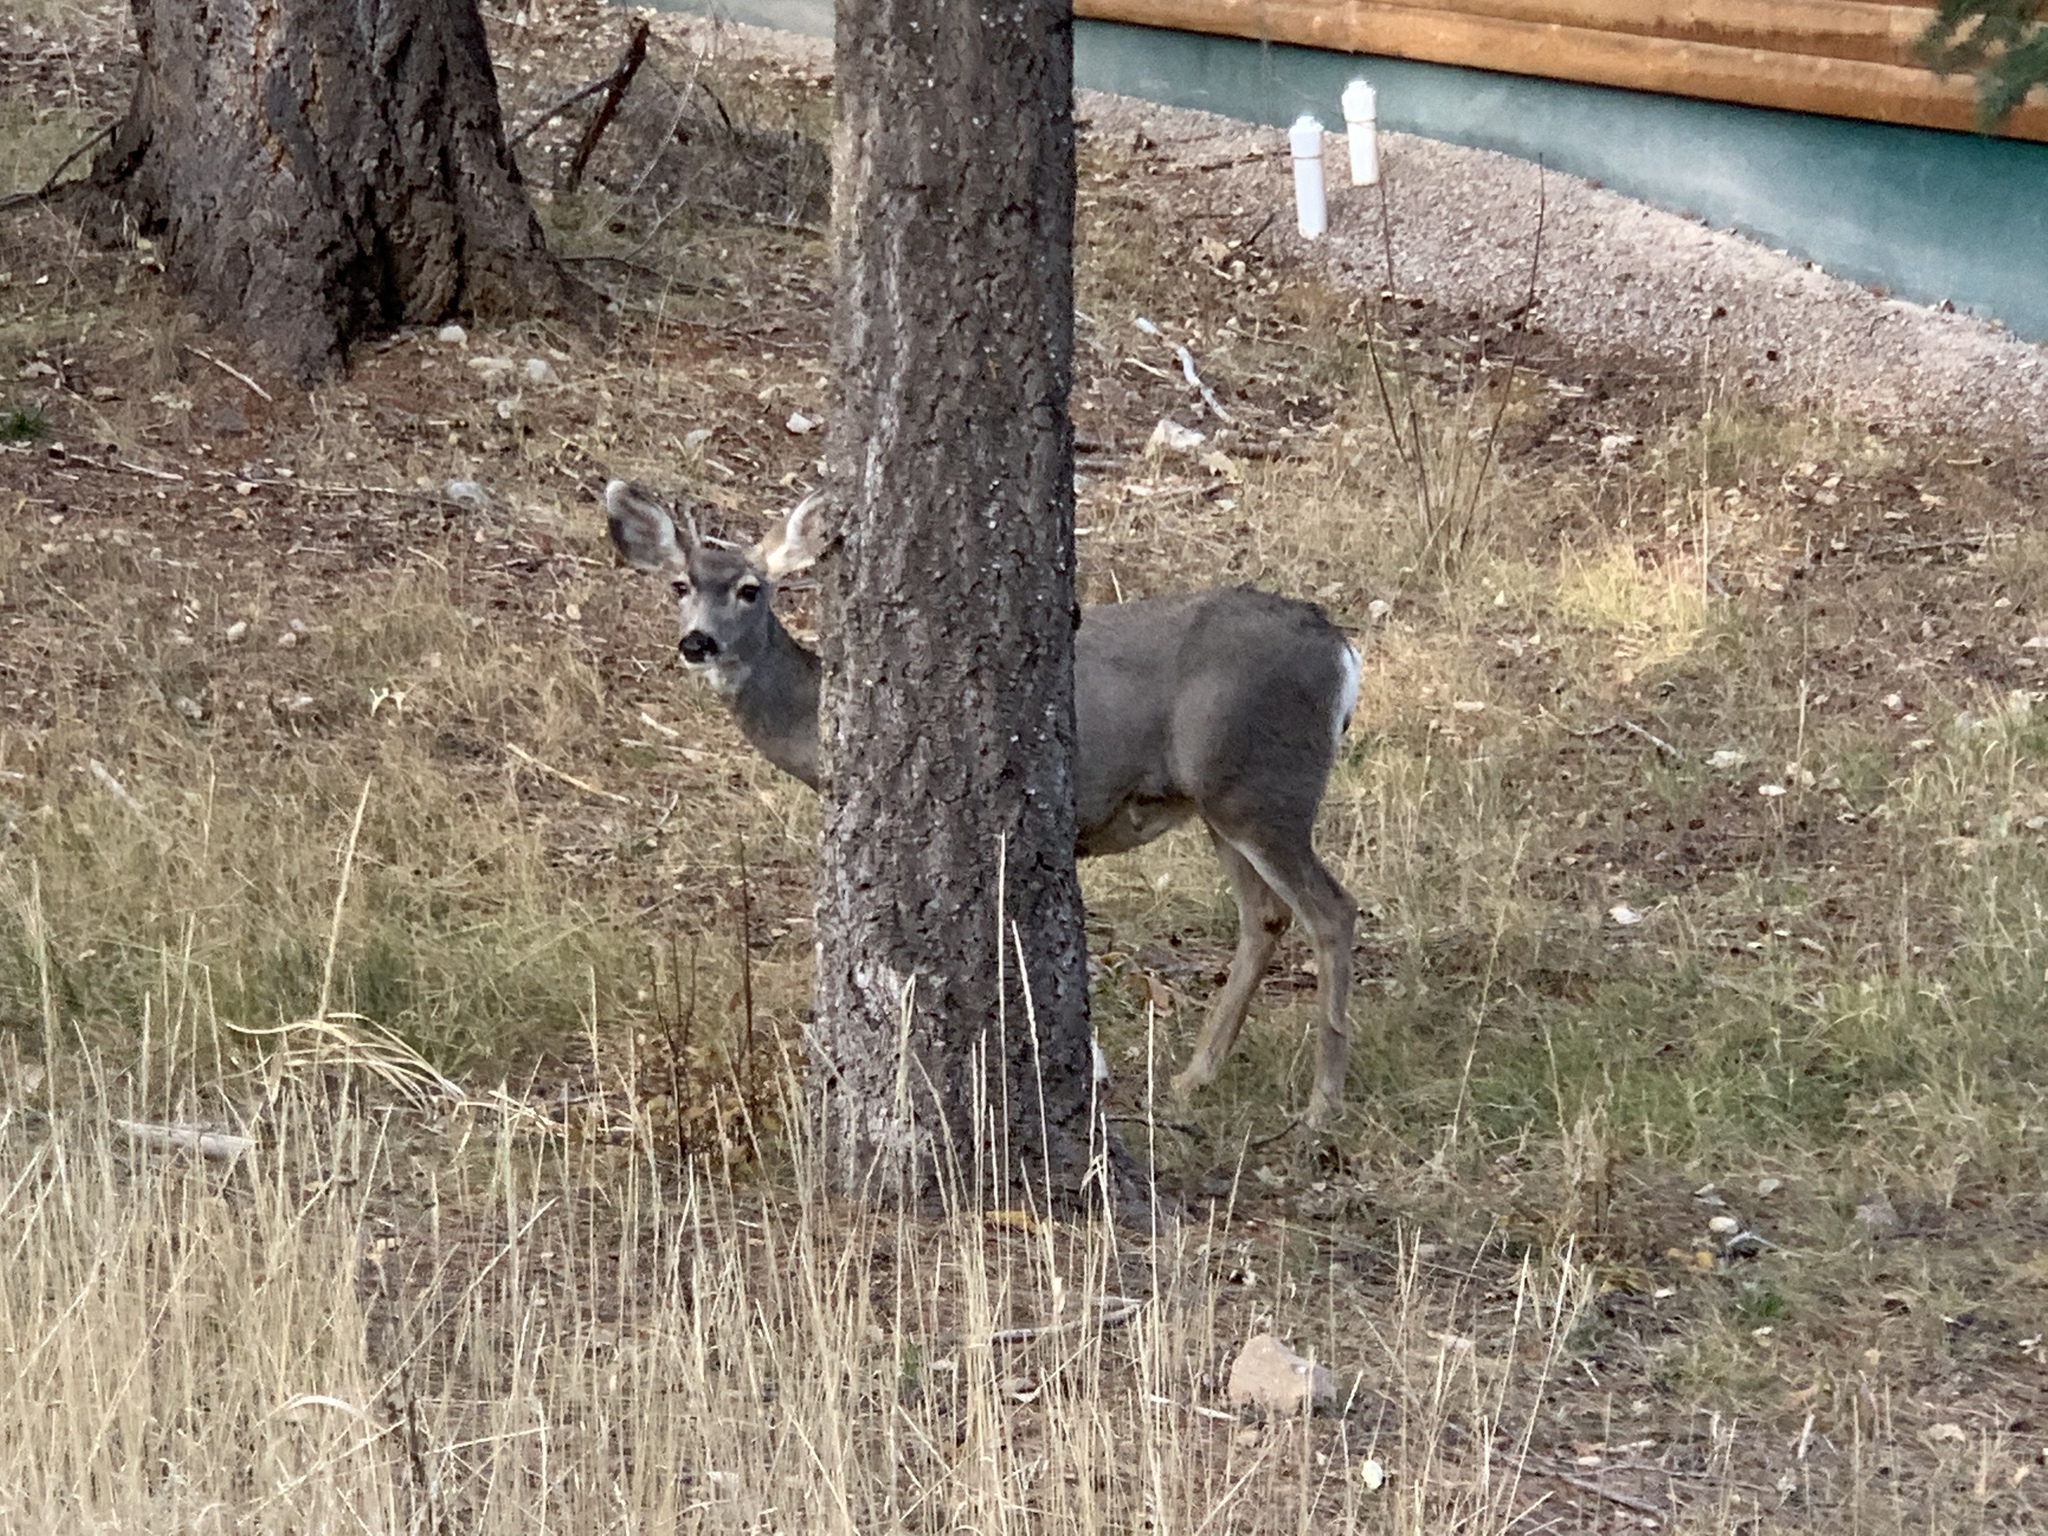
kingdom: Animalia
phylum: Chordata
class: Mammalia
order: Artiodactyla
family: Cervidae
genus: Odocoileus
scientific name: Odocoileus hemionus
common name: Mule deer
